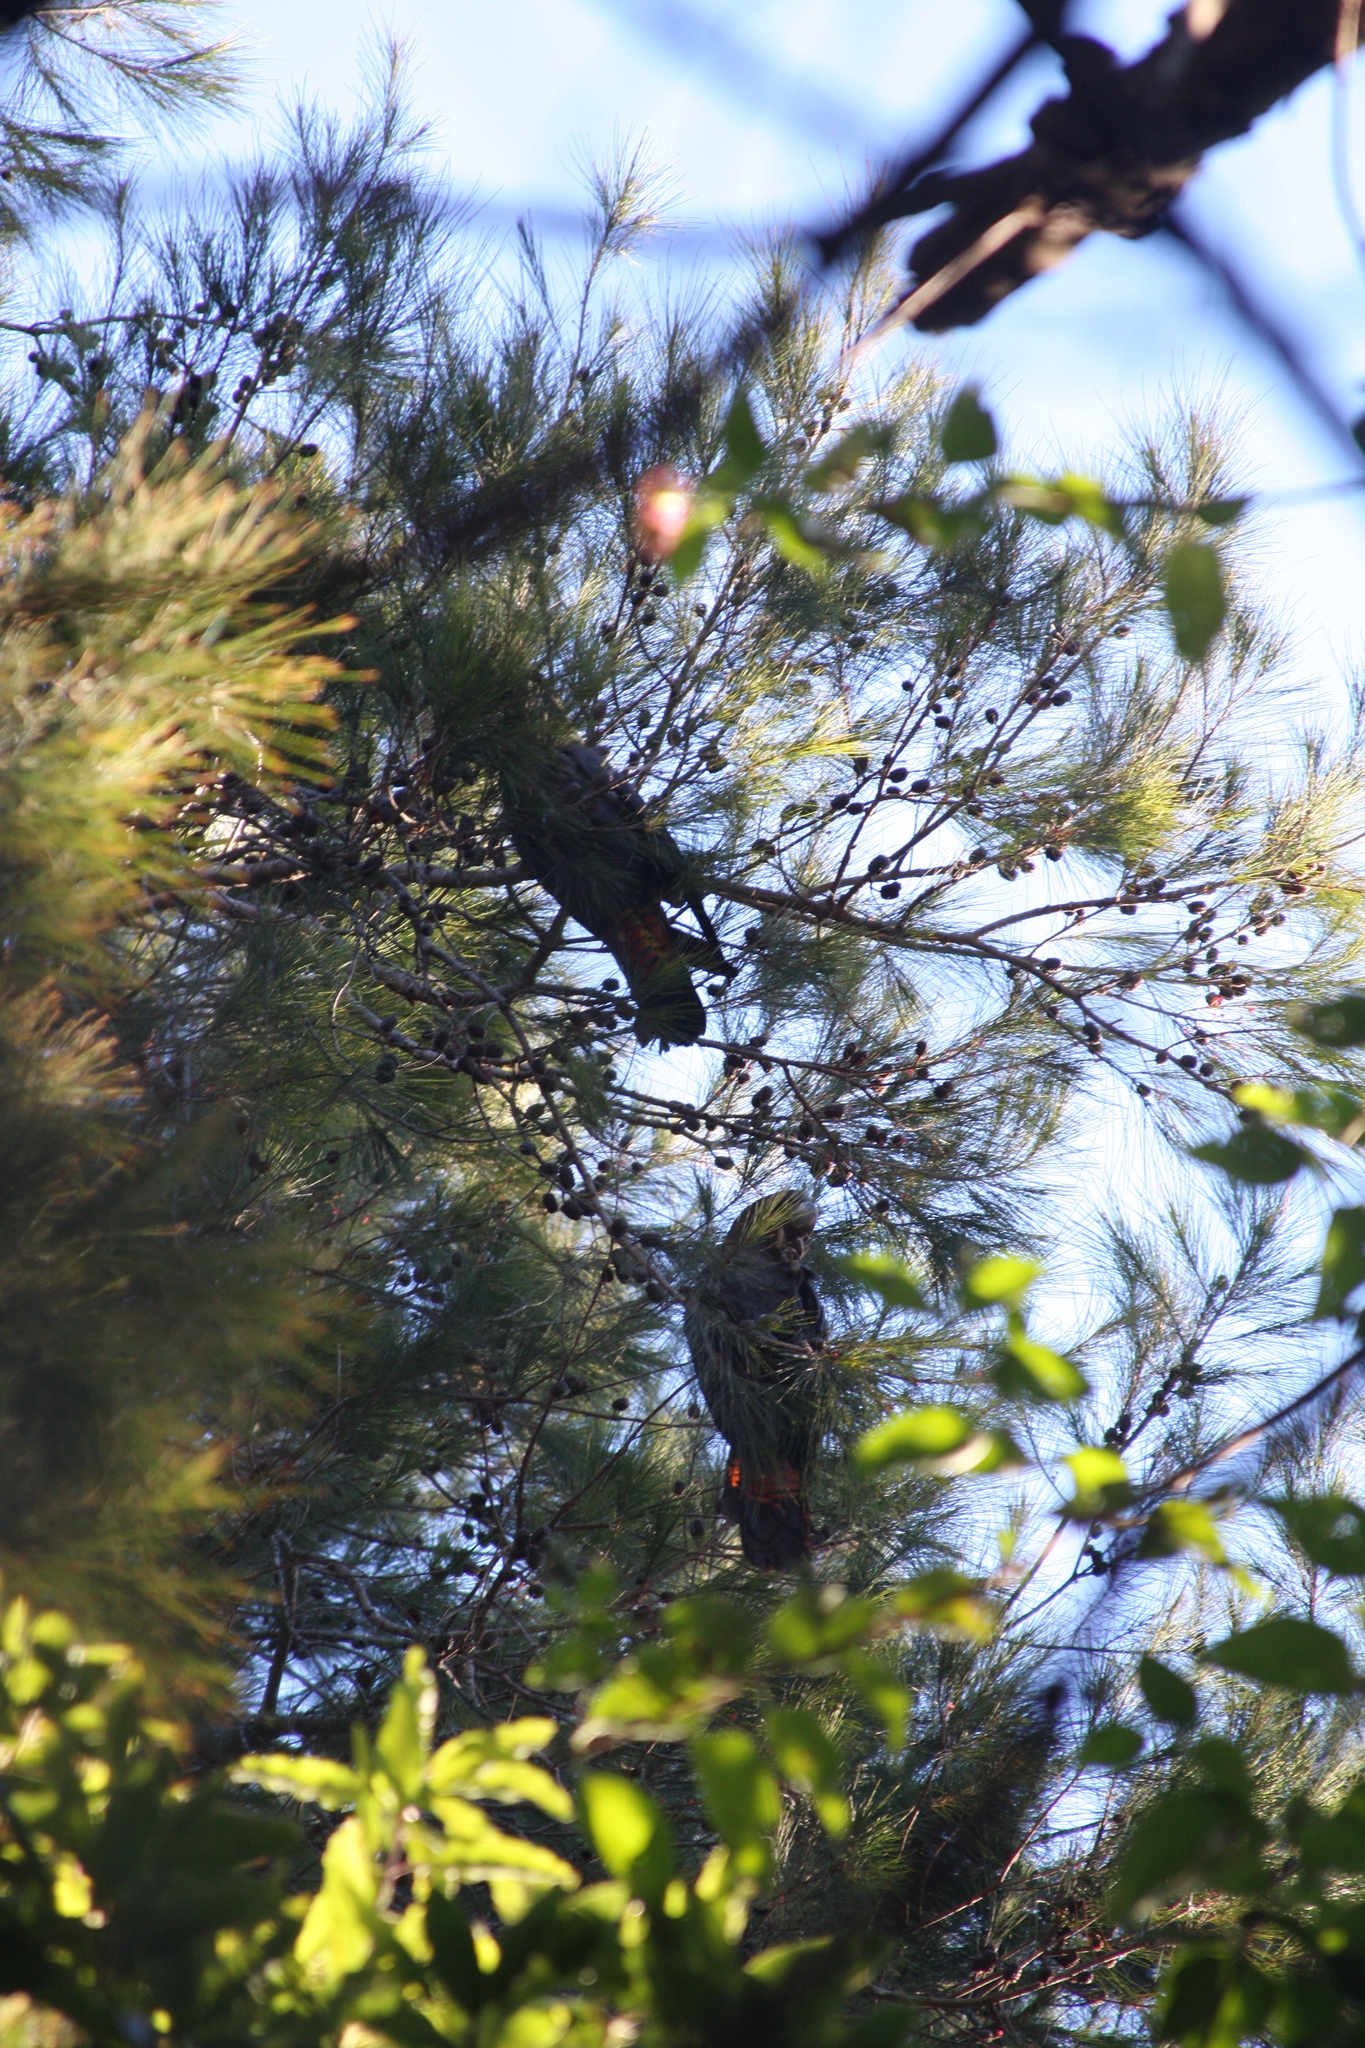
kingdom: Animalia
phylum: Chordata
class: Aves
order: Psittaciformes
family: Psittacidae
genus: Calyptorhynchus
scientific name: Calyptorhynchus lathami
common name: Glossy black cockatoo
